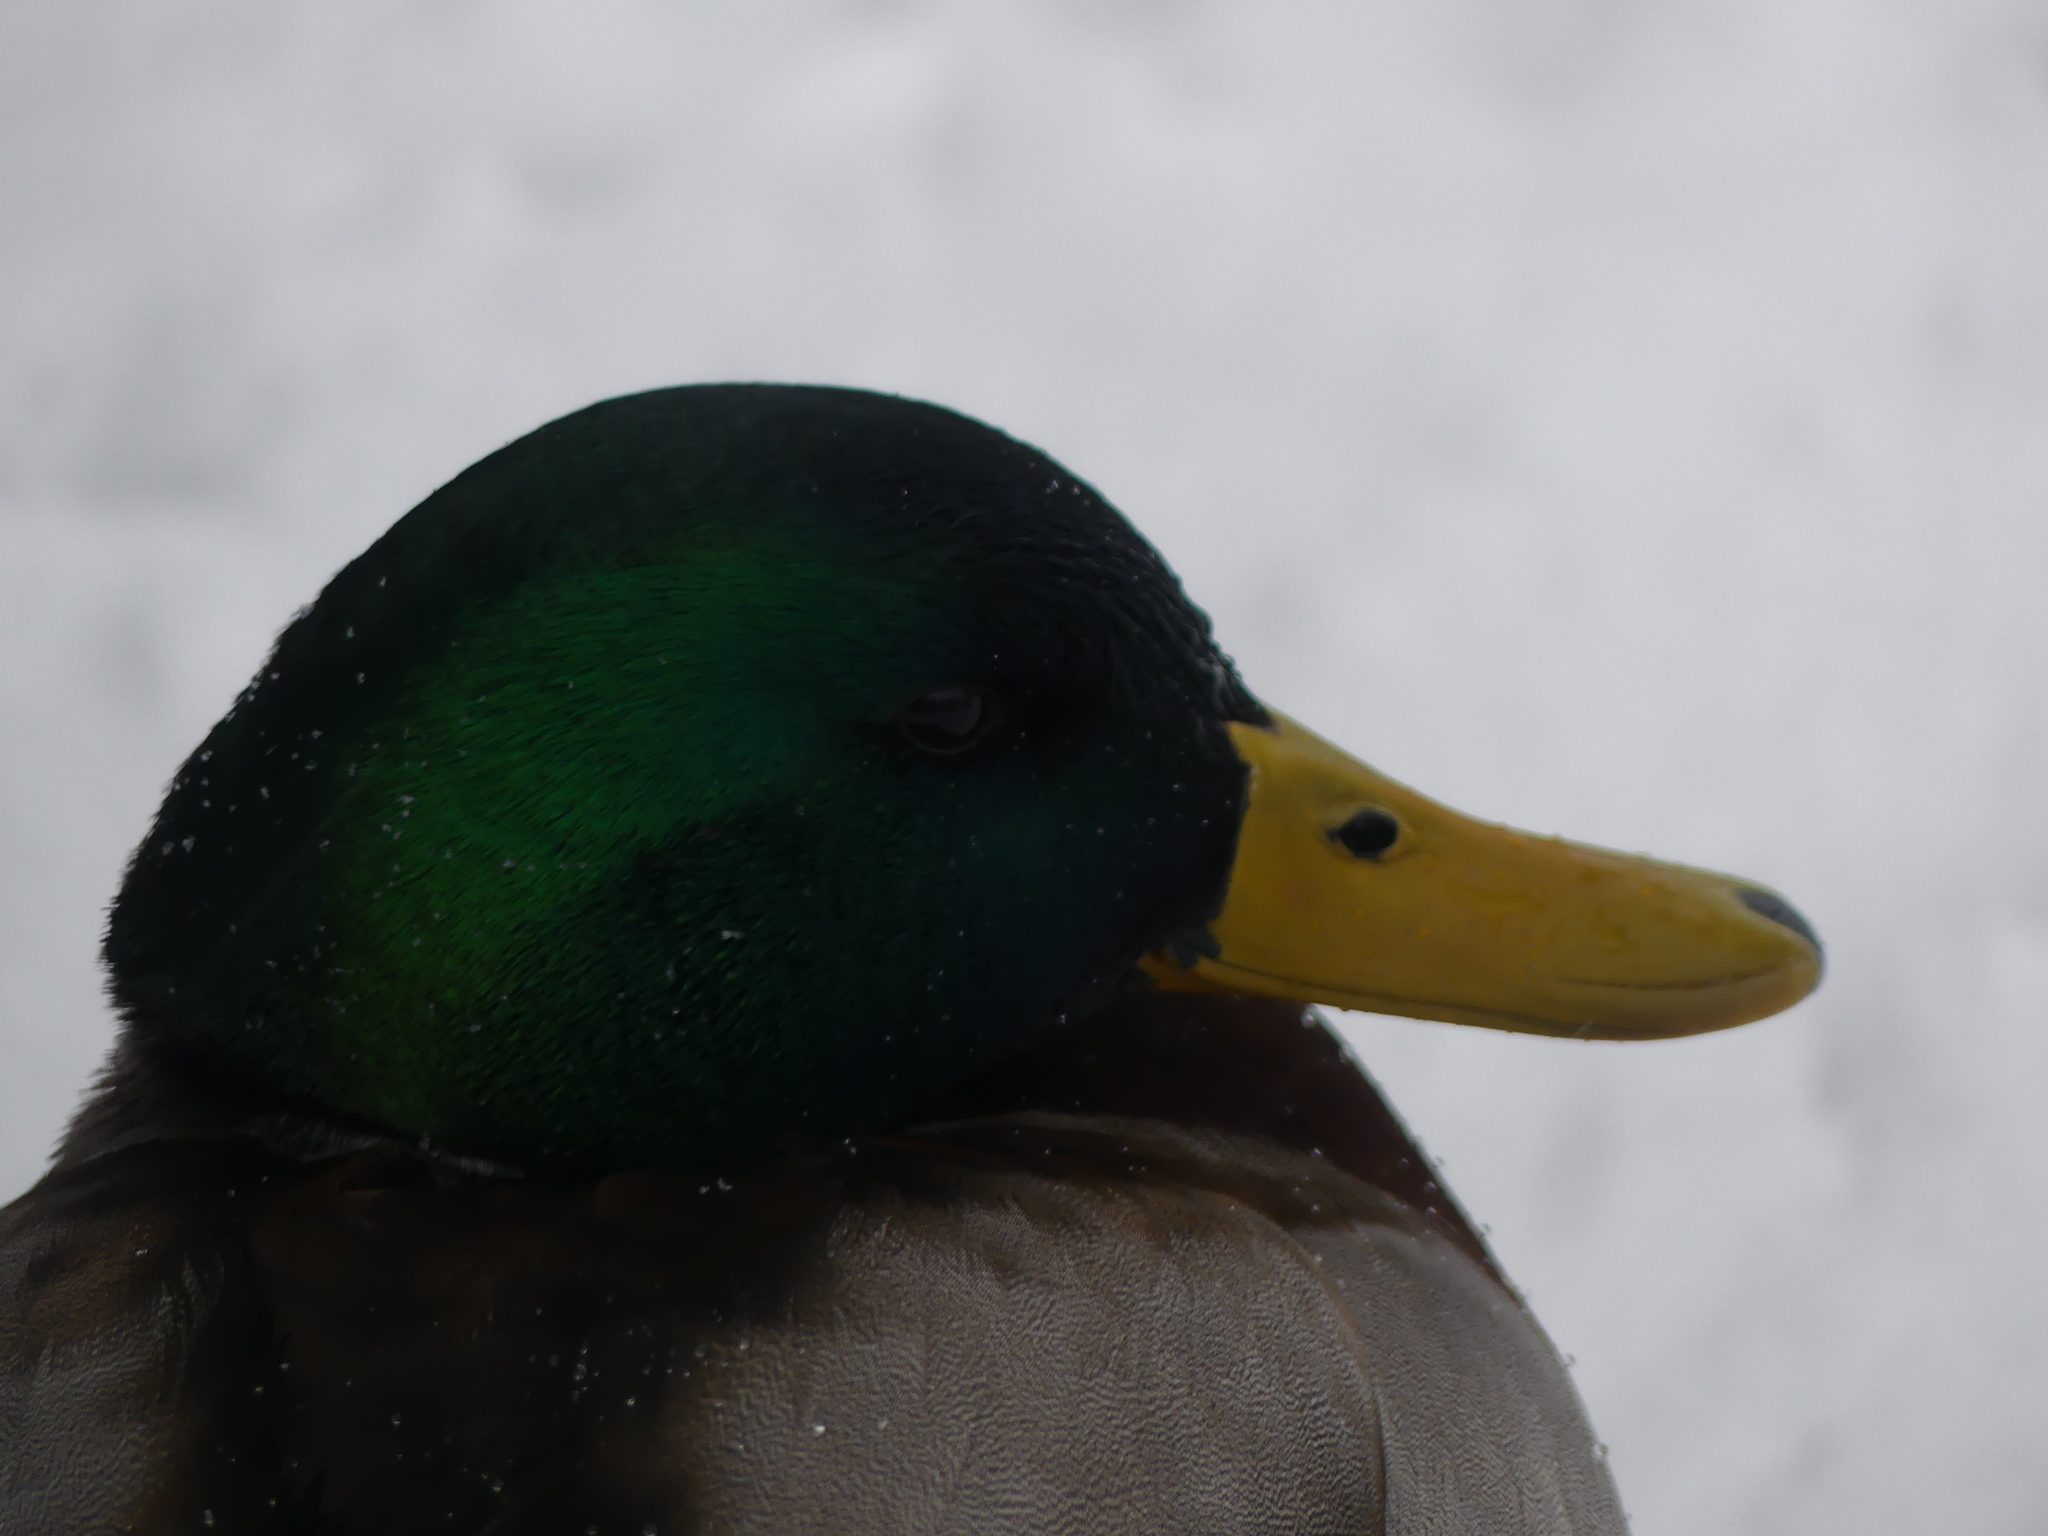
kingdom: Animalia
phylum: Chordata
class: Aves
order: Anseriformes
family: Anatidae
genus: Anas
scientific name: Anas platyrhynchos
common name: Mallard
